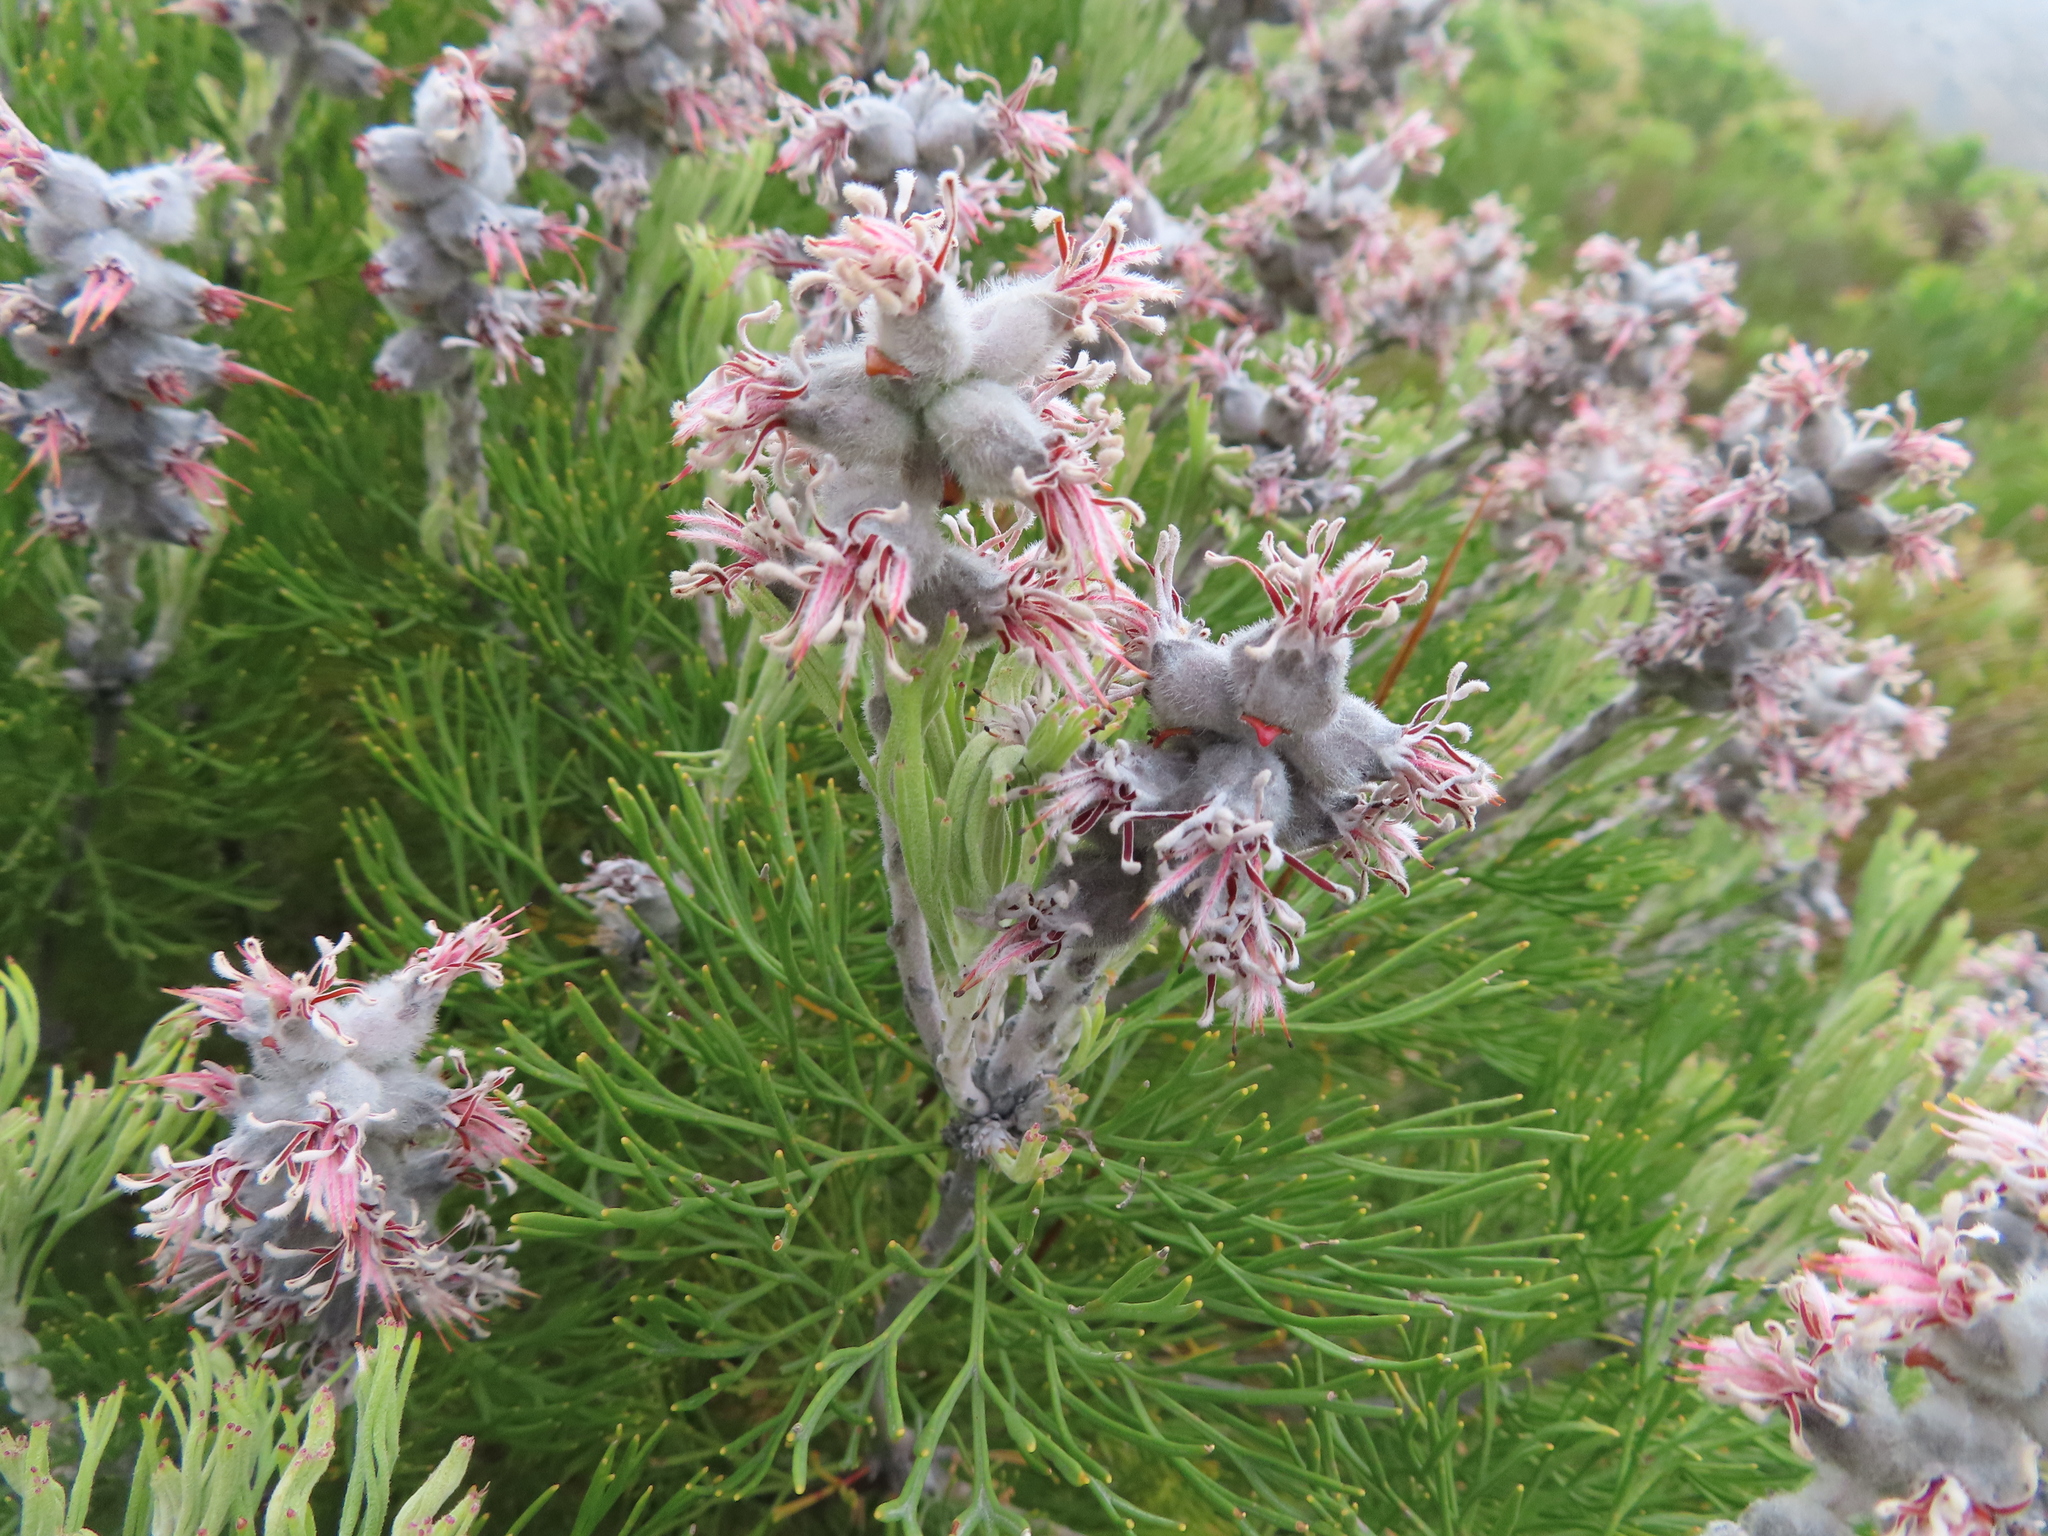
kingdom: Plantae
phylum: Tracheophyta
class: Magnoliopsida
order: Proteales
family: Proteaceae
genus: Paranomus
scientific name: Paranomus spicatus
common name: Kogelberg sceptre
